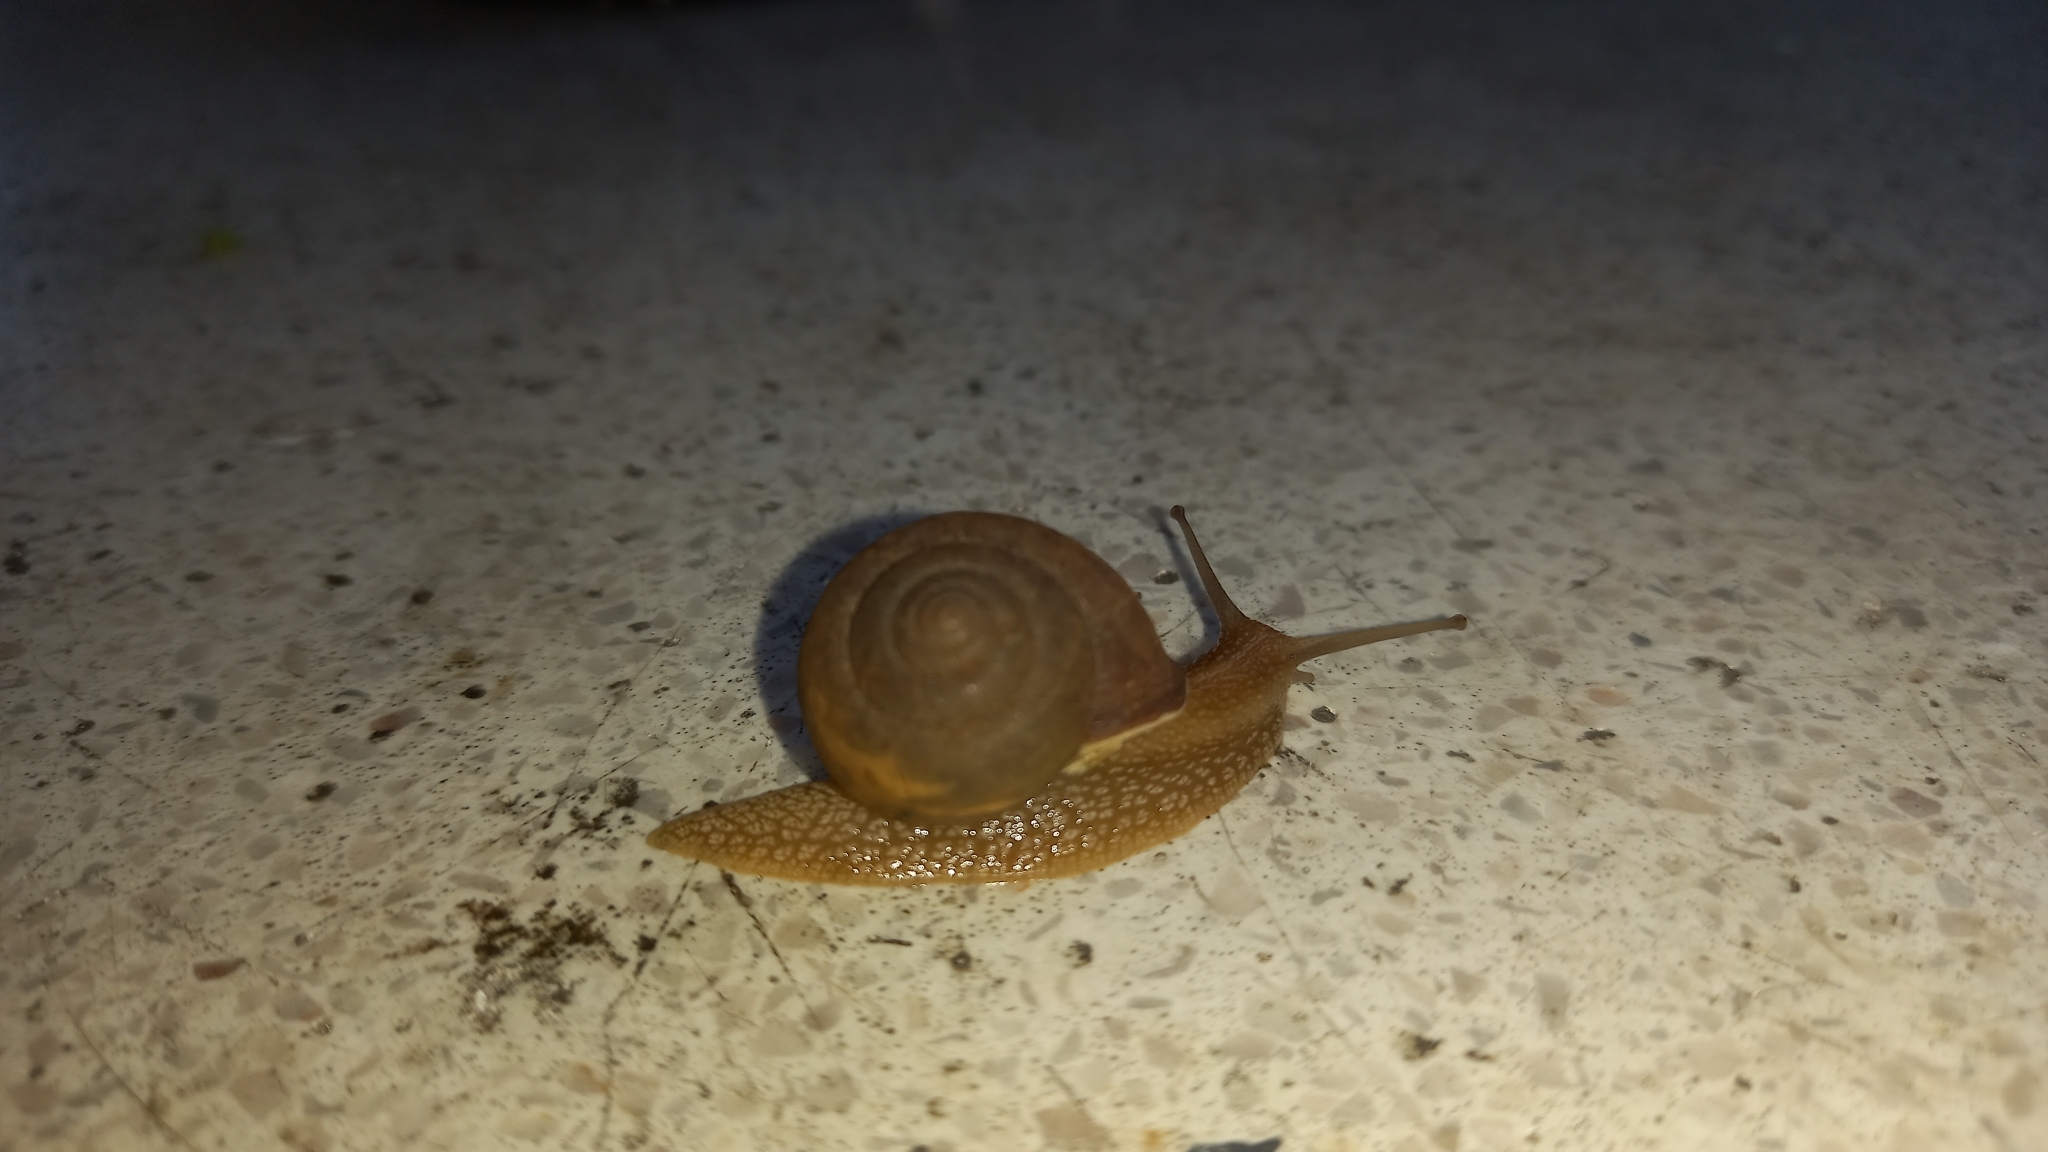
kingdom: Animalia
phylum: Mollusca
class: Gastropoda
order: Stylommatophora
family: Camaenidae
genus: Acusta
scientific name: Acusta tourannensis
